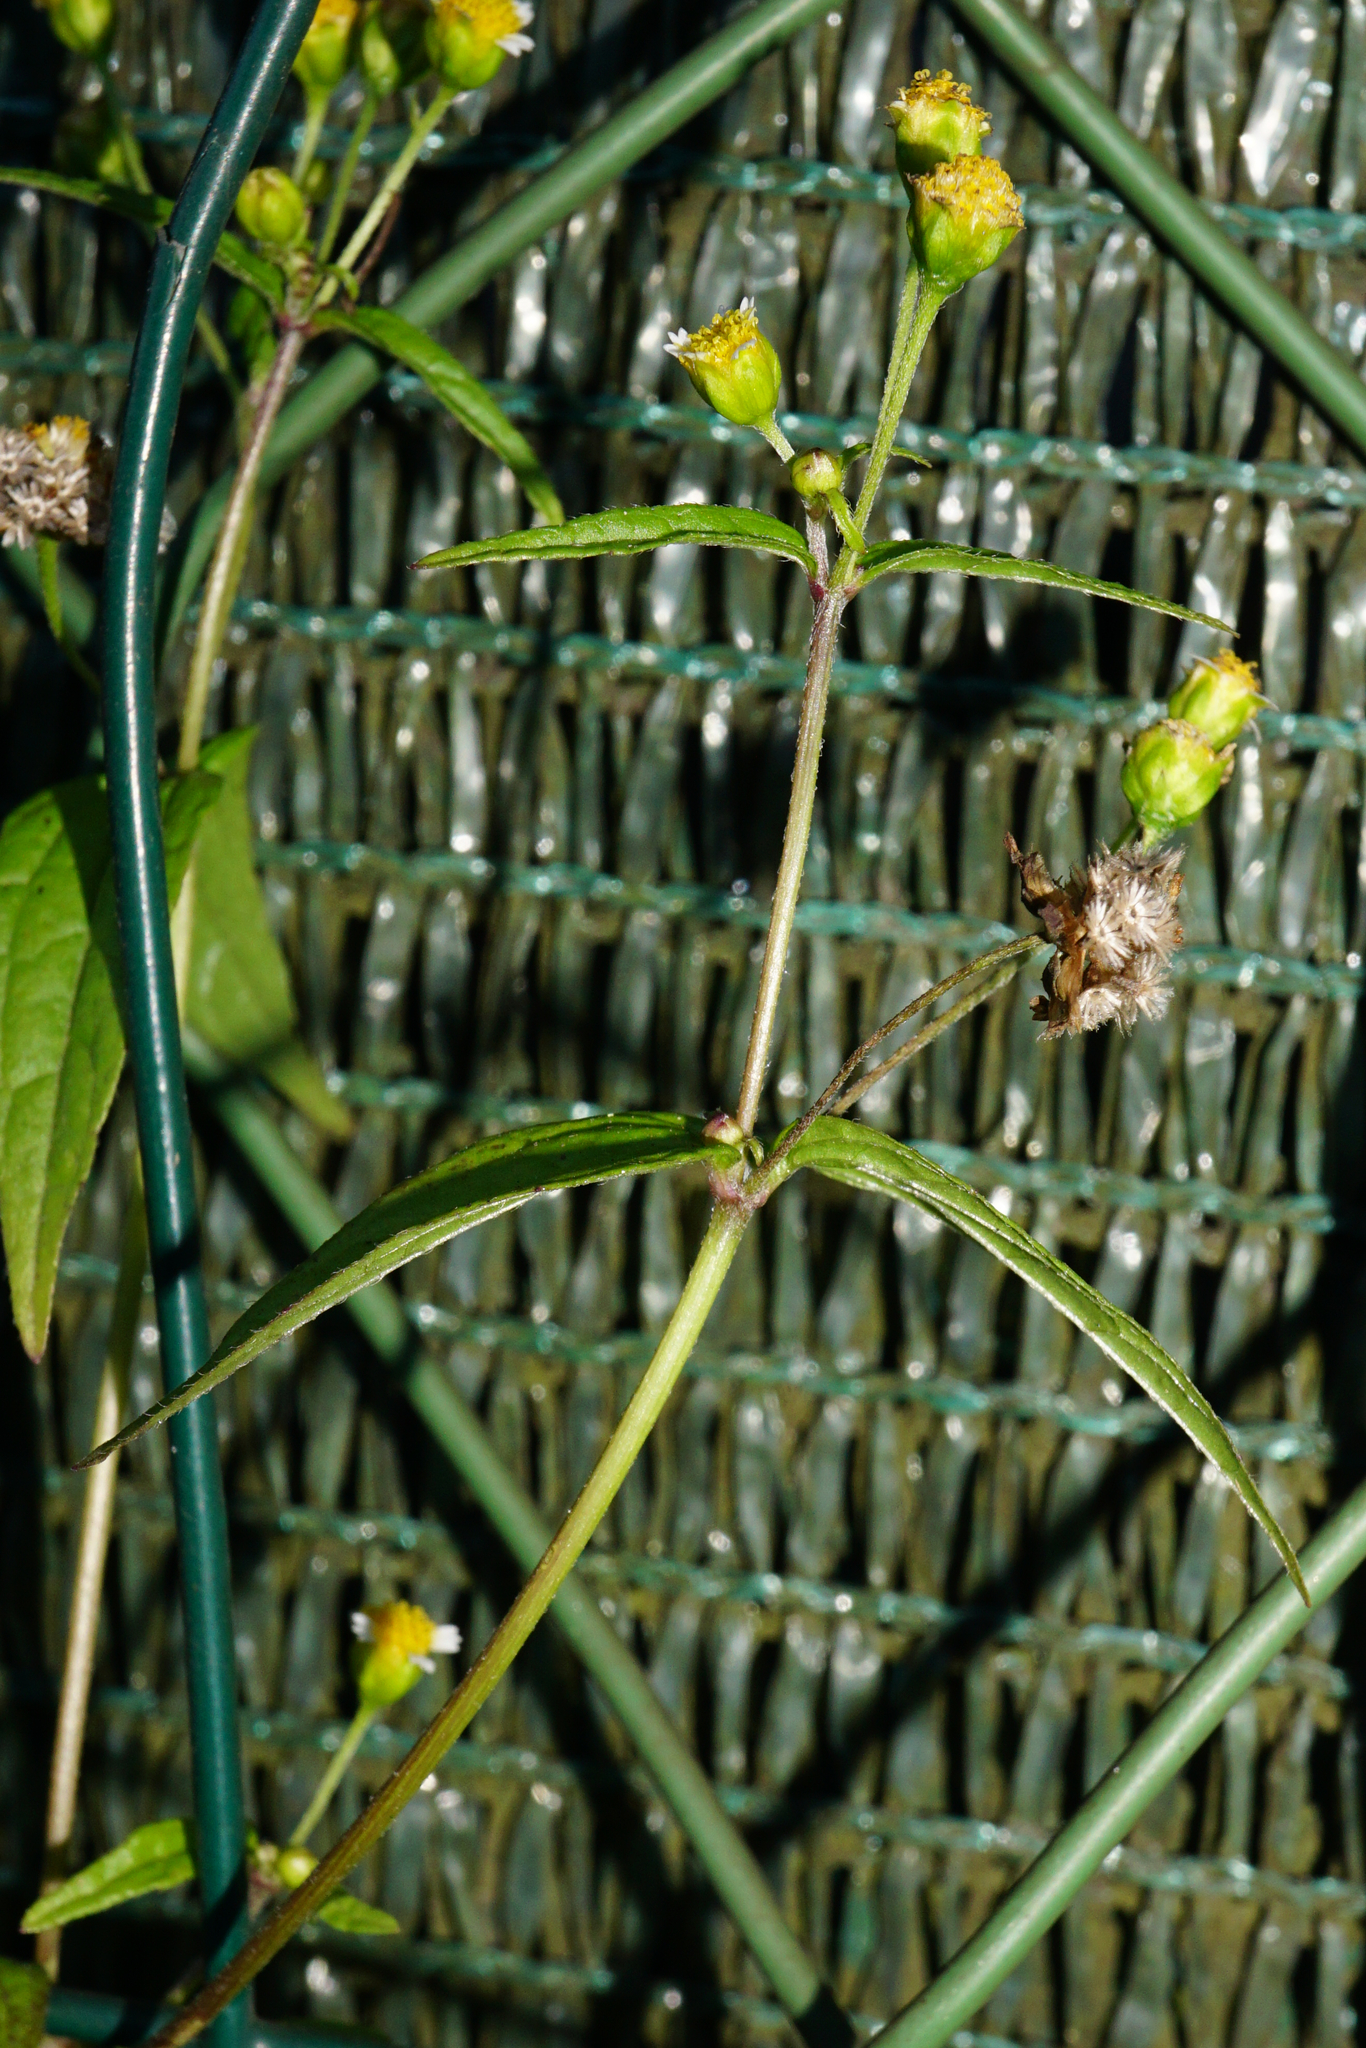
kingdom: Plantae
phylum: Tracheophyta
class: Magnoliopsida
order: Asterales
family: Asteraceae
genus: Galinsoga
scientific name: Galinsoga parviflora
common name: Gallant soldier
